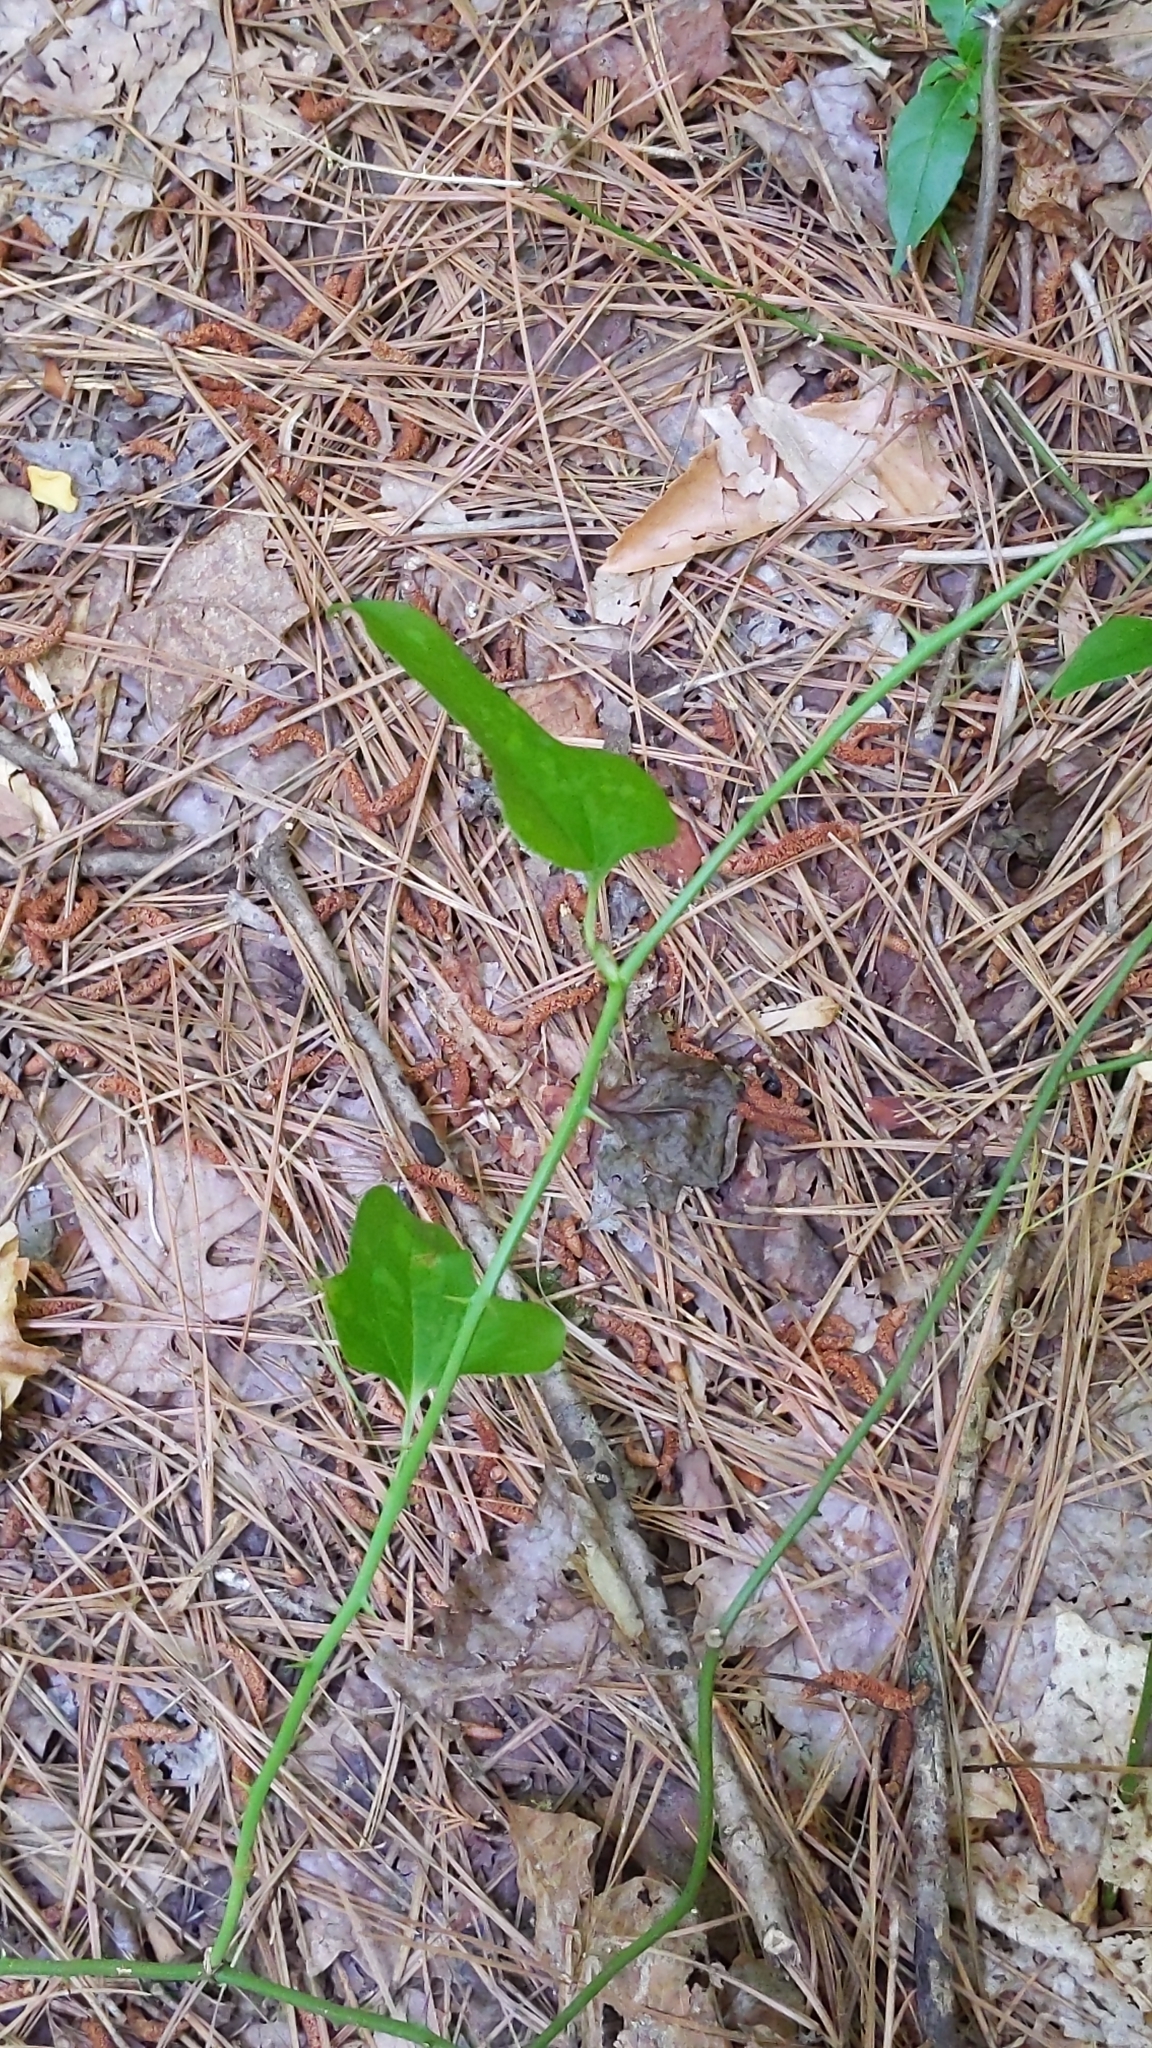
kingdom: Plantae
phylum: Tracheophyta
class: Liliopsida
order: Liliales
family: Smilacaceae
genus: Smilax
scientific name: Smilax bona-nox
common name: Catbrier
